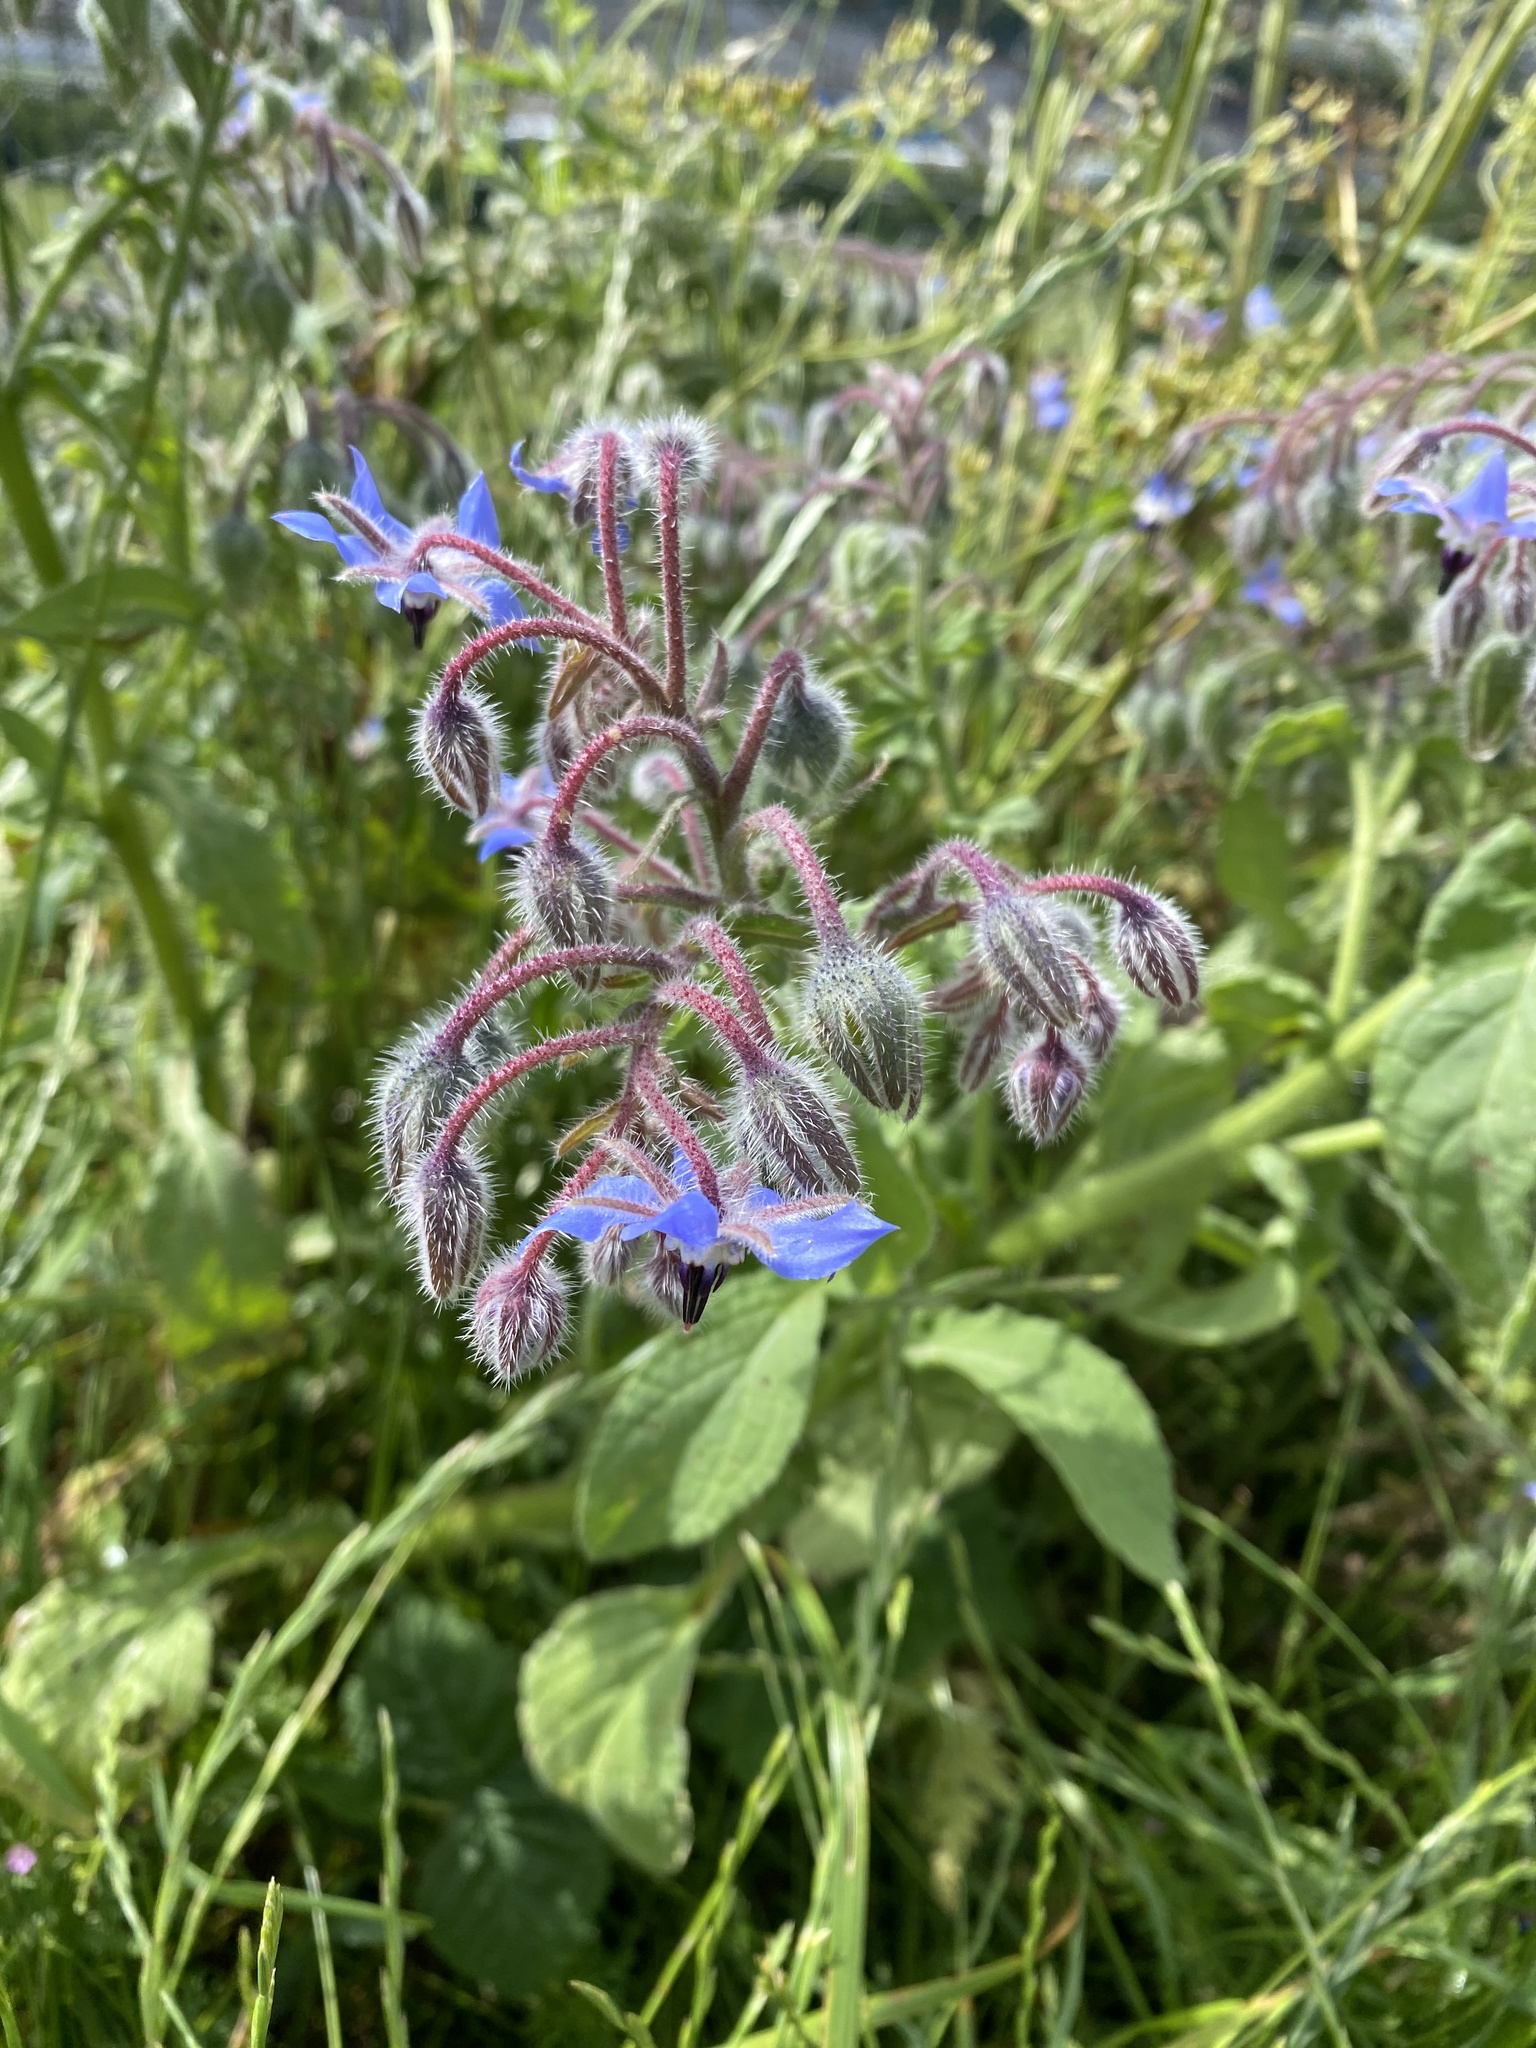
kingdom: Plantae
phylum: Tracheophyta
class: Magnoliopsida
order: Boraginales
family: Boraginaceae
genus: Borago
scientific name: Borago officinalis
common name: Borage
